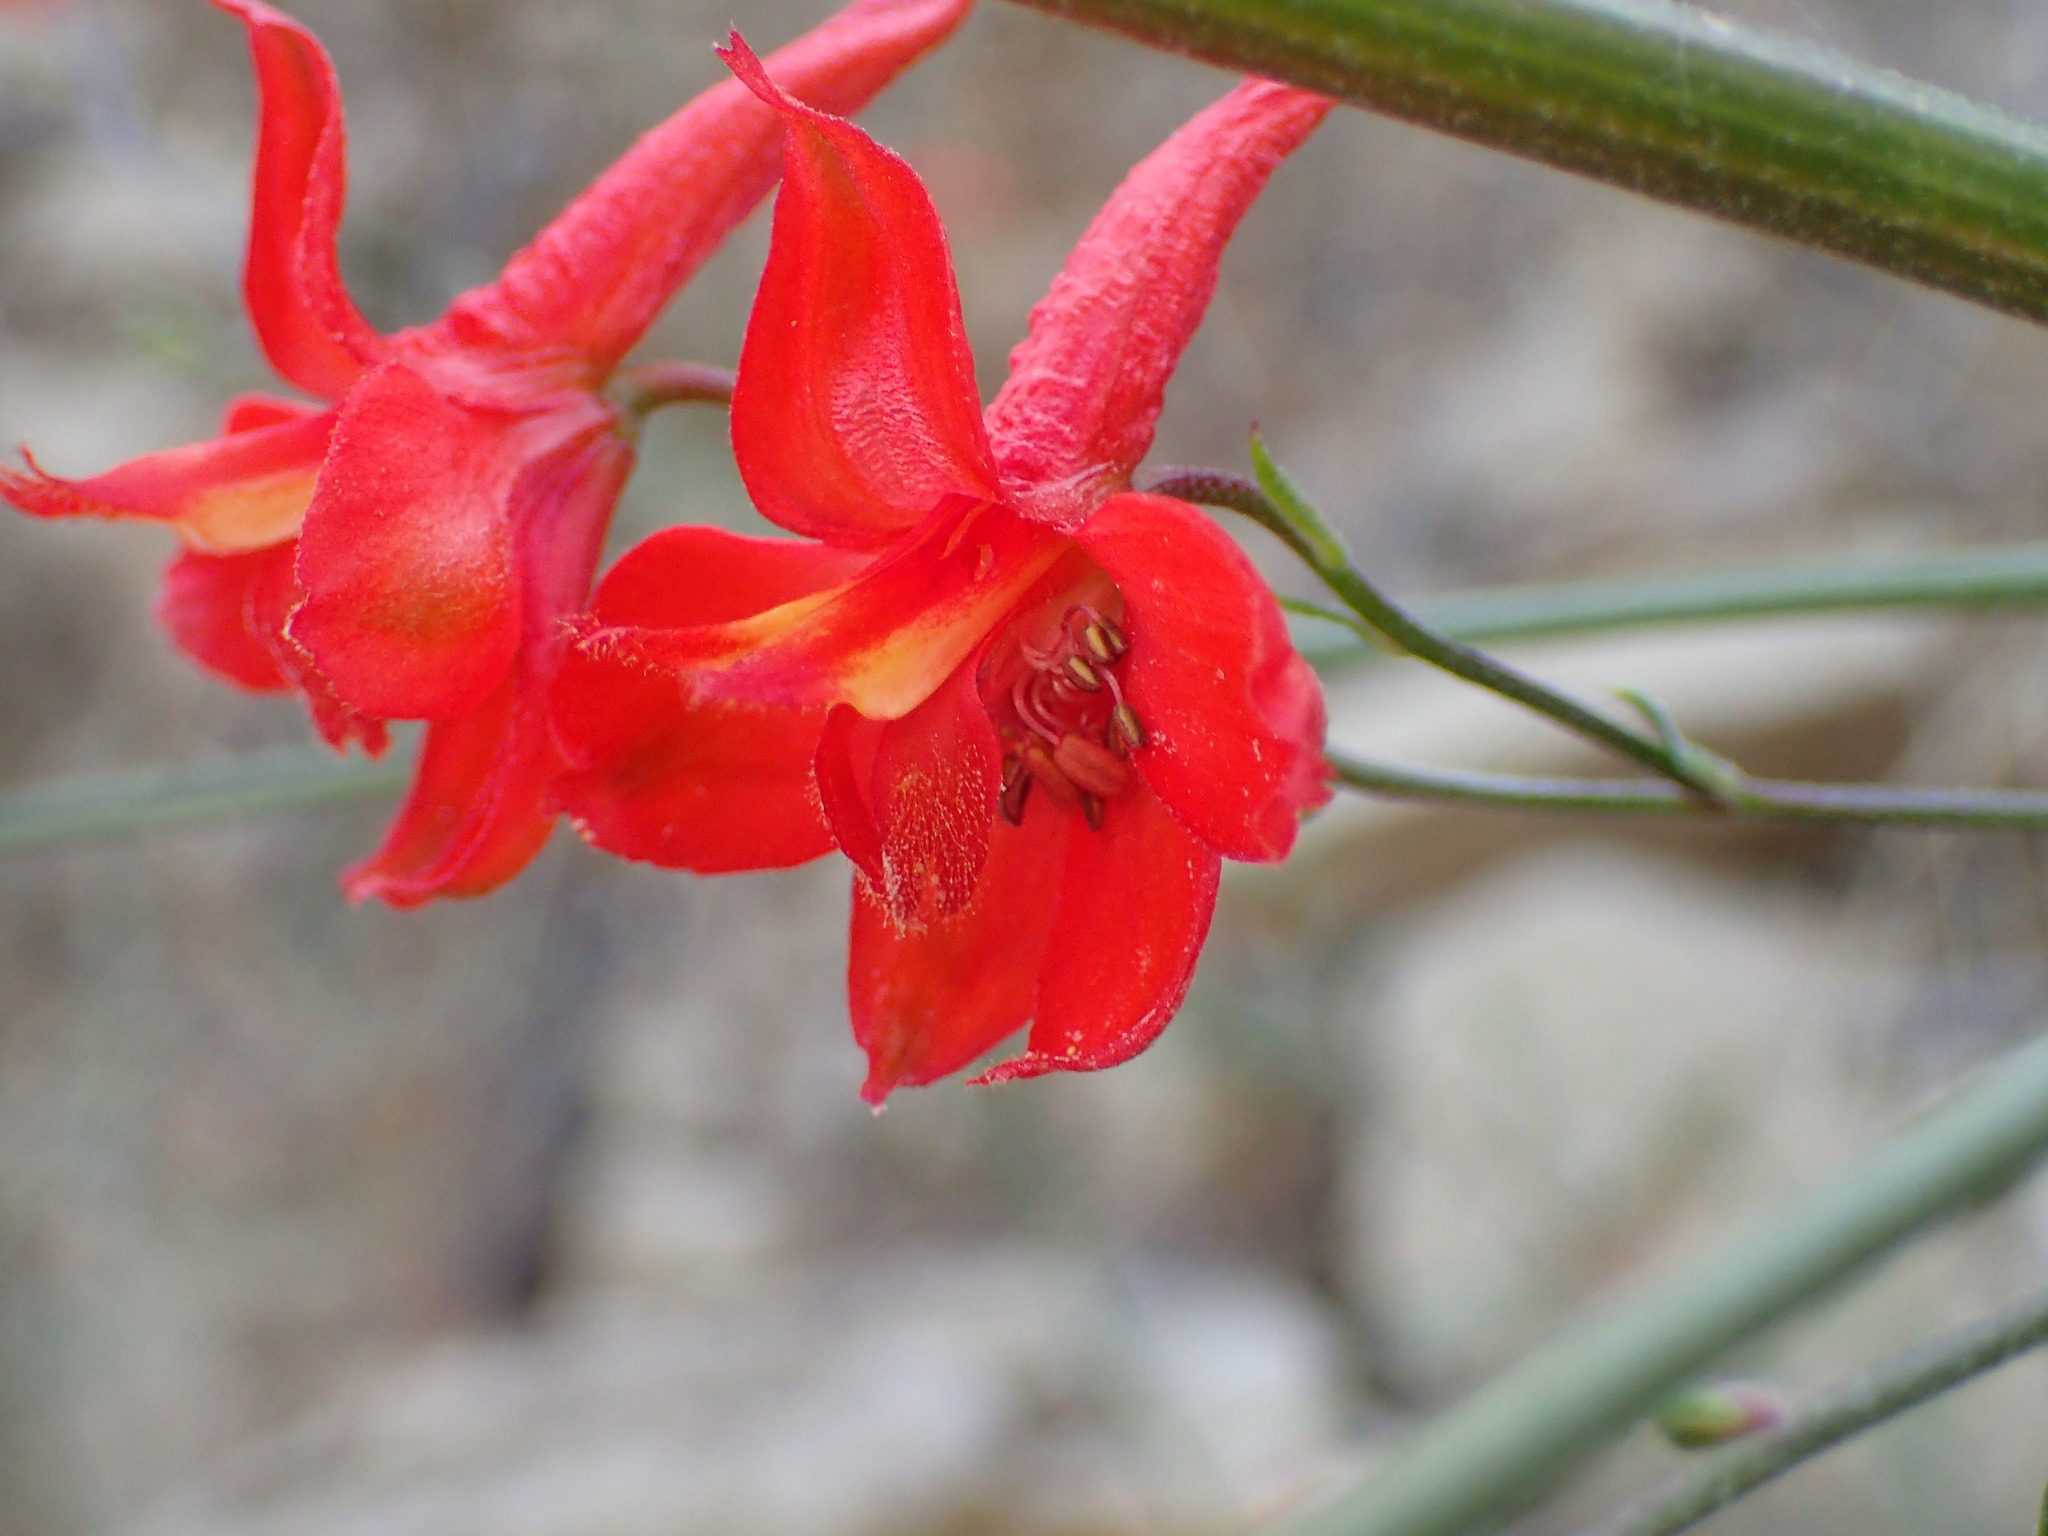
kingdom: Plantae
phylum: Tracheophyta
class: Magnoliopsida
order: Ranunculales
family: Ranunculaceae
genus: Delphinium
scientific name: Delphinium cardinale
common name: Scarlet larkspur
